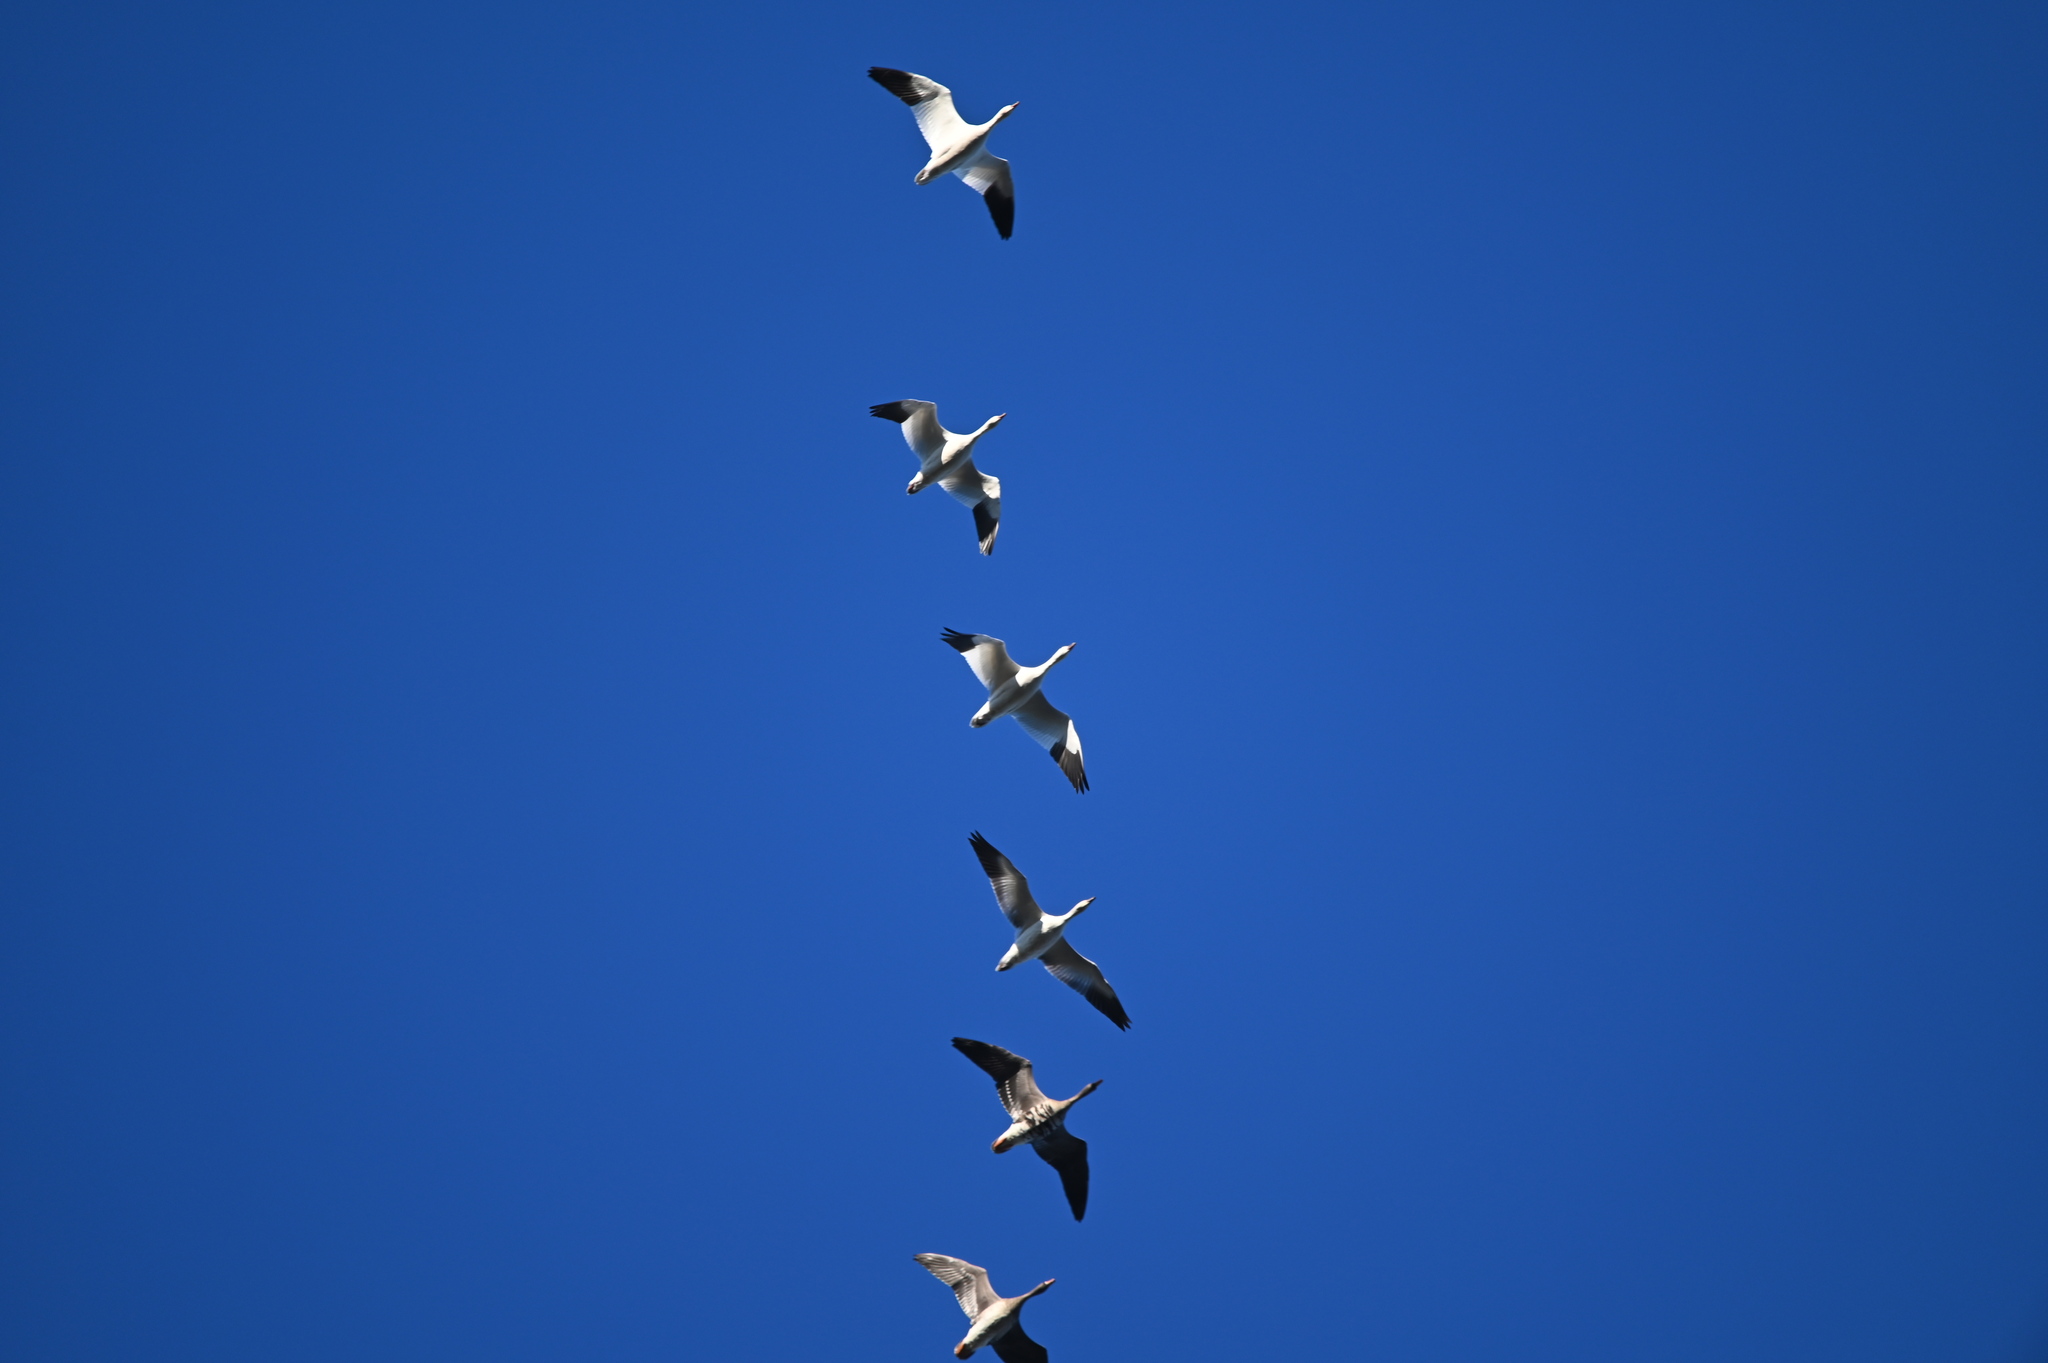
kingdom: Animalia
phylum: Chordata
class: Aves
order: Anseriformes
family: Anatidae
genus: Anser
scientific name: Anser caerulescens
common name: Snow goose
